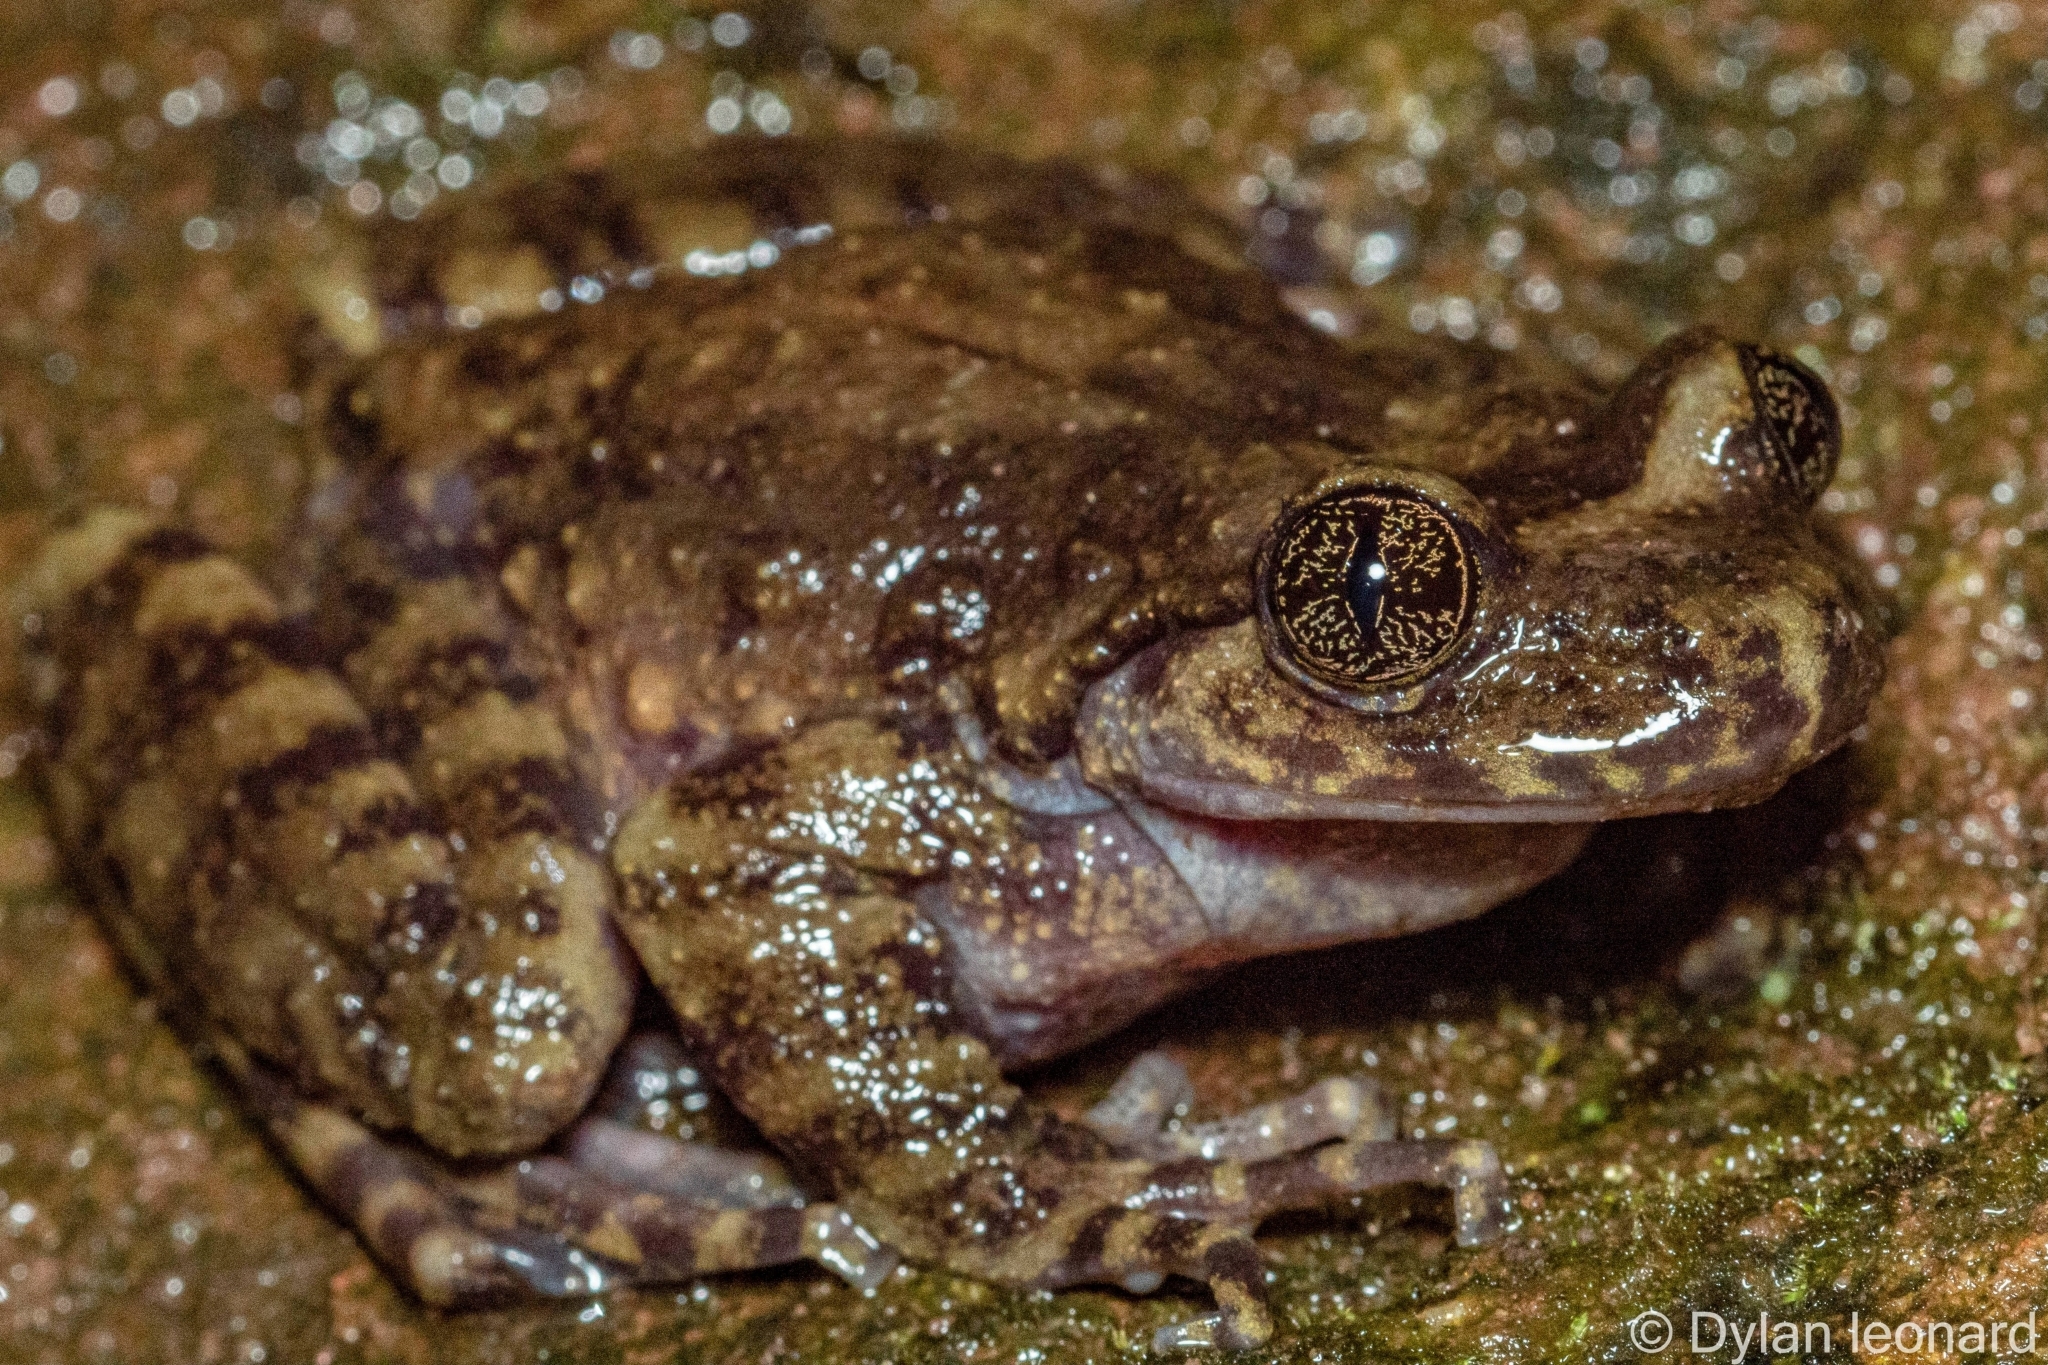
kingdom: Animalia
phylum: Chordata
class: Amphibia
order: Anura
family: Heleophrynidae
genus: Hadromophryne
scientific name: Hadromophryne natalensis
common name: Natal ghost frog
